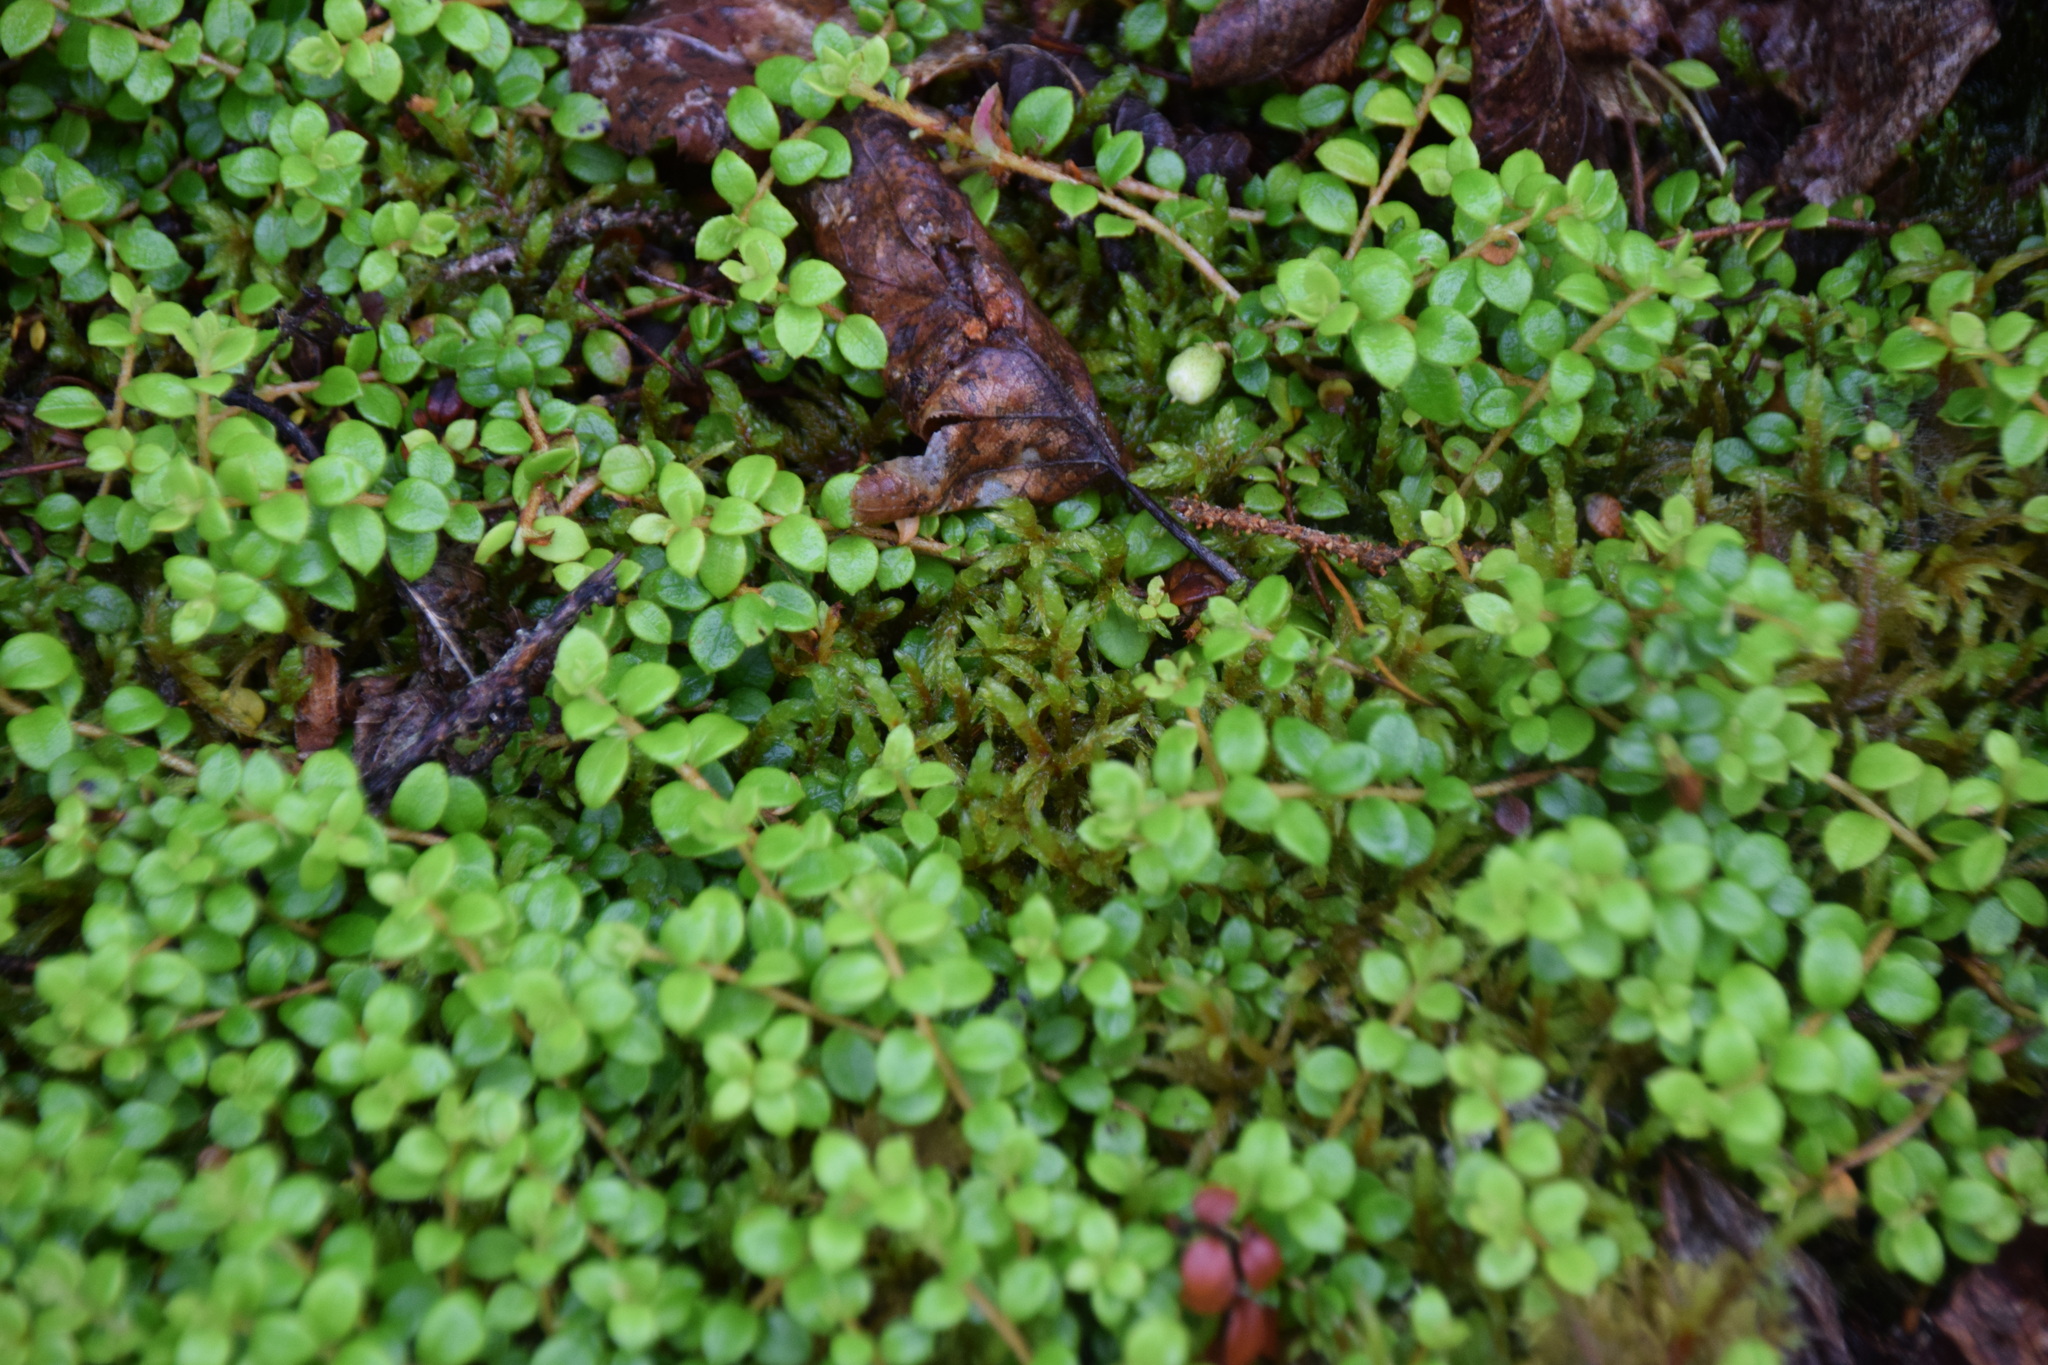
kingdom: Plantae
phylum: Tracheophyta
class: Magnoliopsida
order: Ericales
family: Ericaceae
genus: Gaultheria
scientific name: Gaultheria hispidula
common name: Cancer wintergreen
